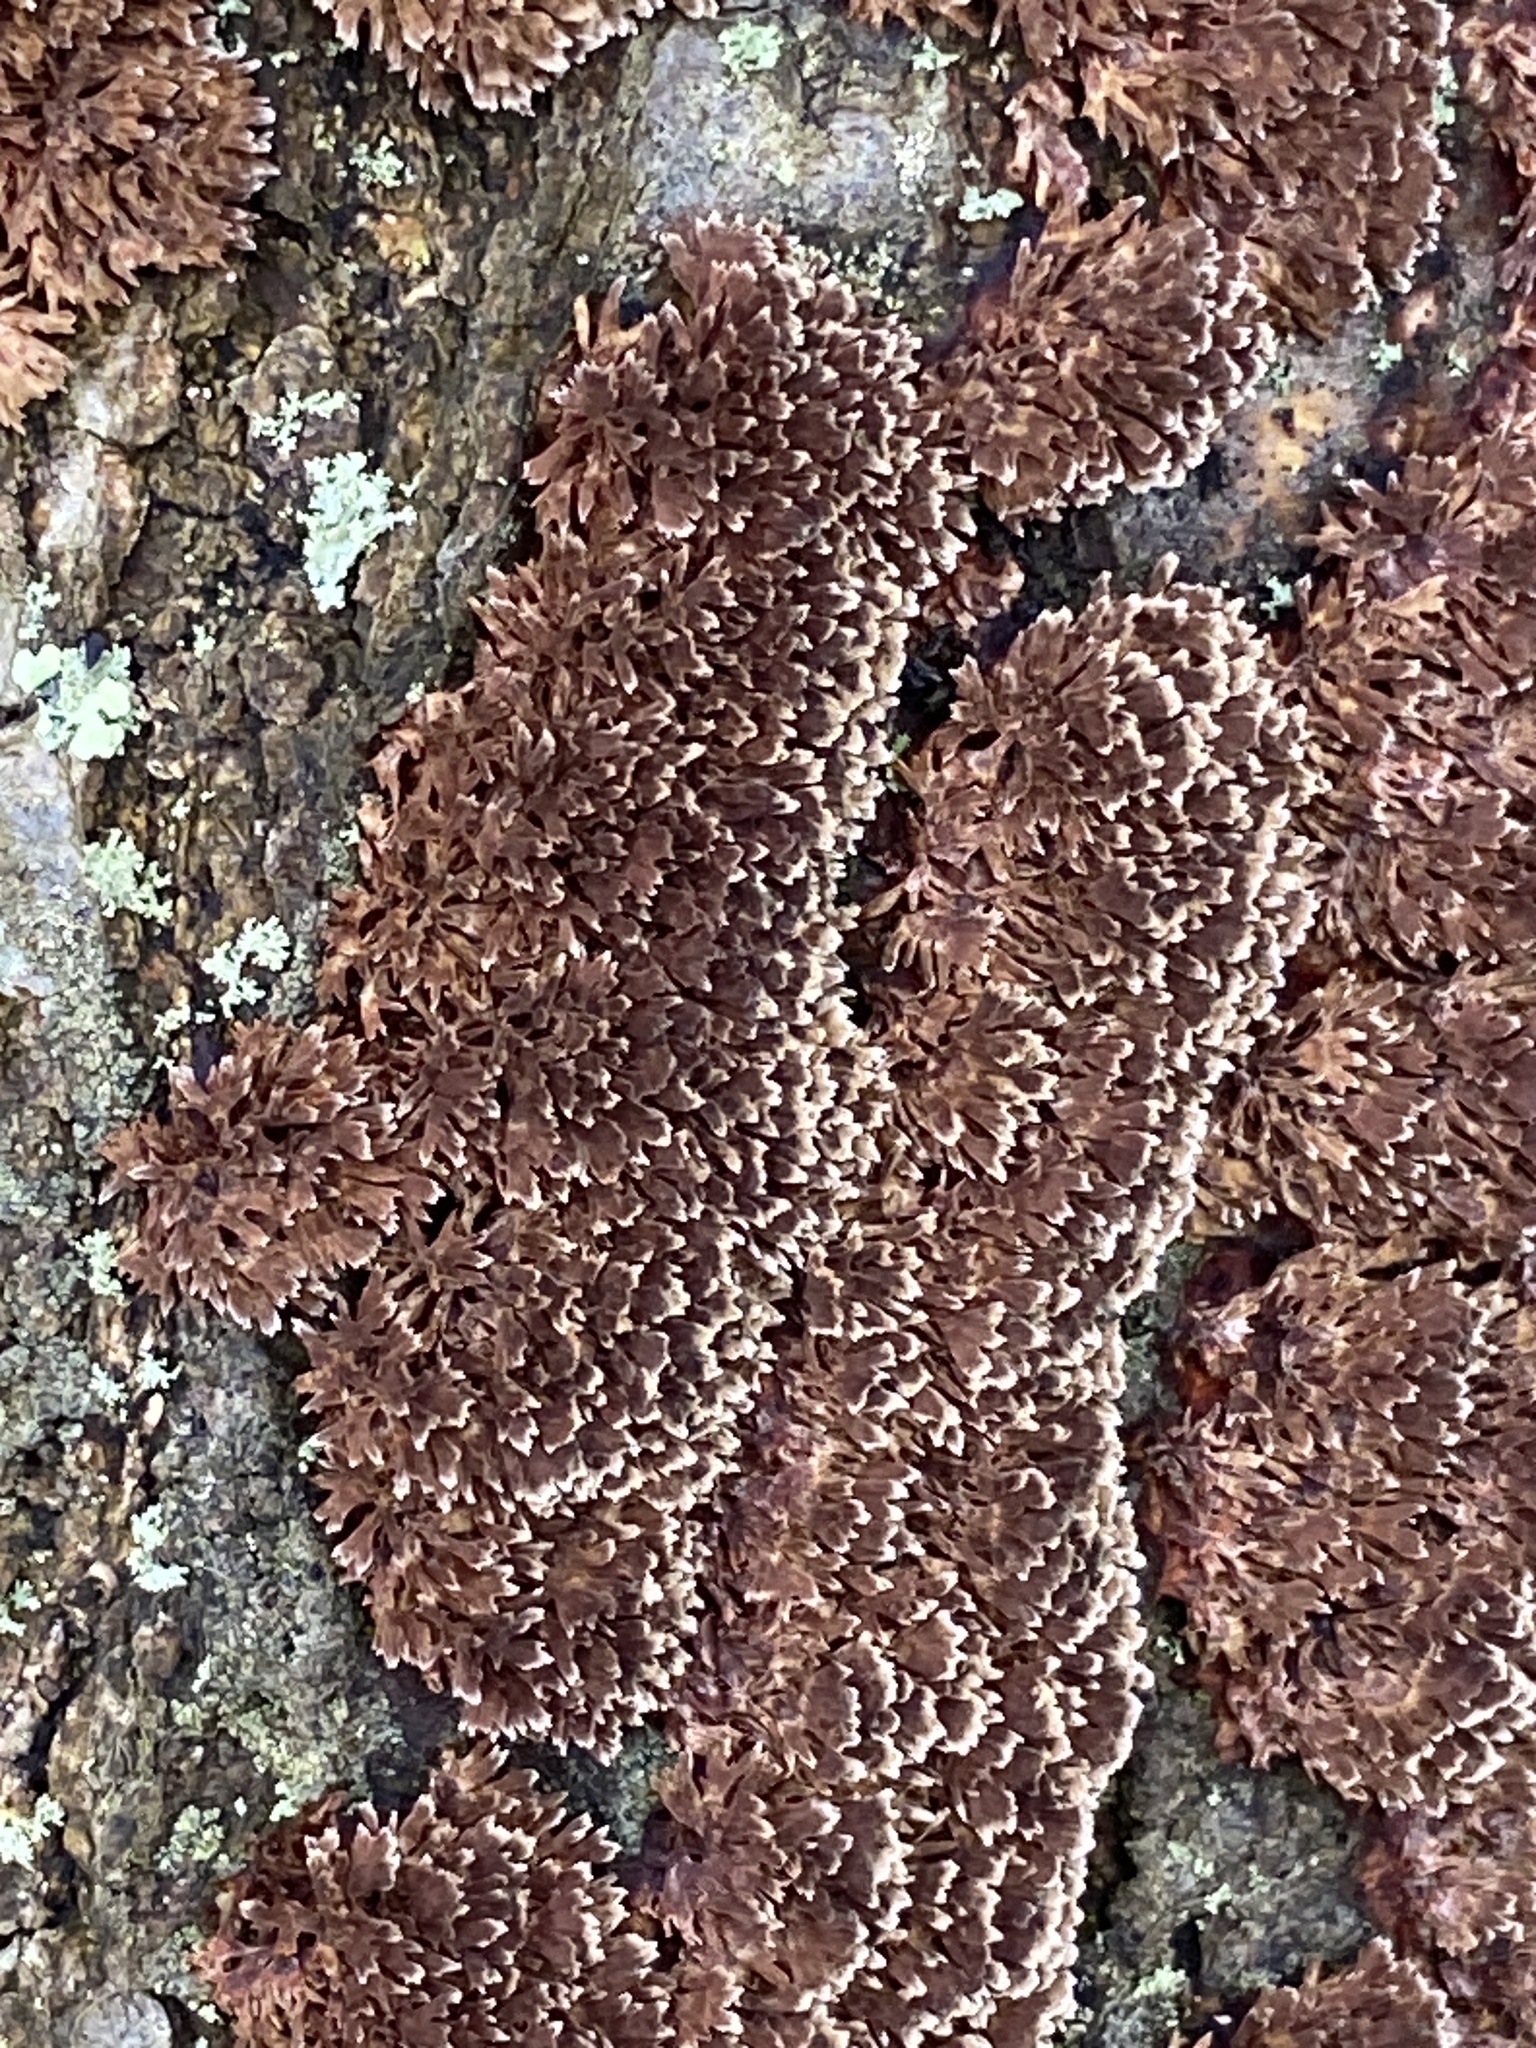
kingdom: Fungi
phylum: Basidiomycota
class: Agaricomycetes
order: Hymenochaetales
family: Hymenochaetaceae
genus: Hydnoporia
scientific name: Hydnoporia olivacea
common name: Brown-toothed crust fungus
